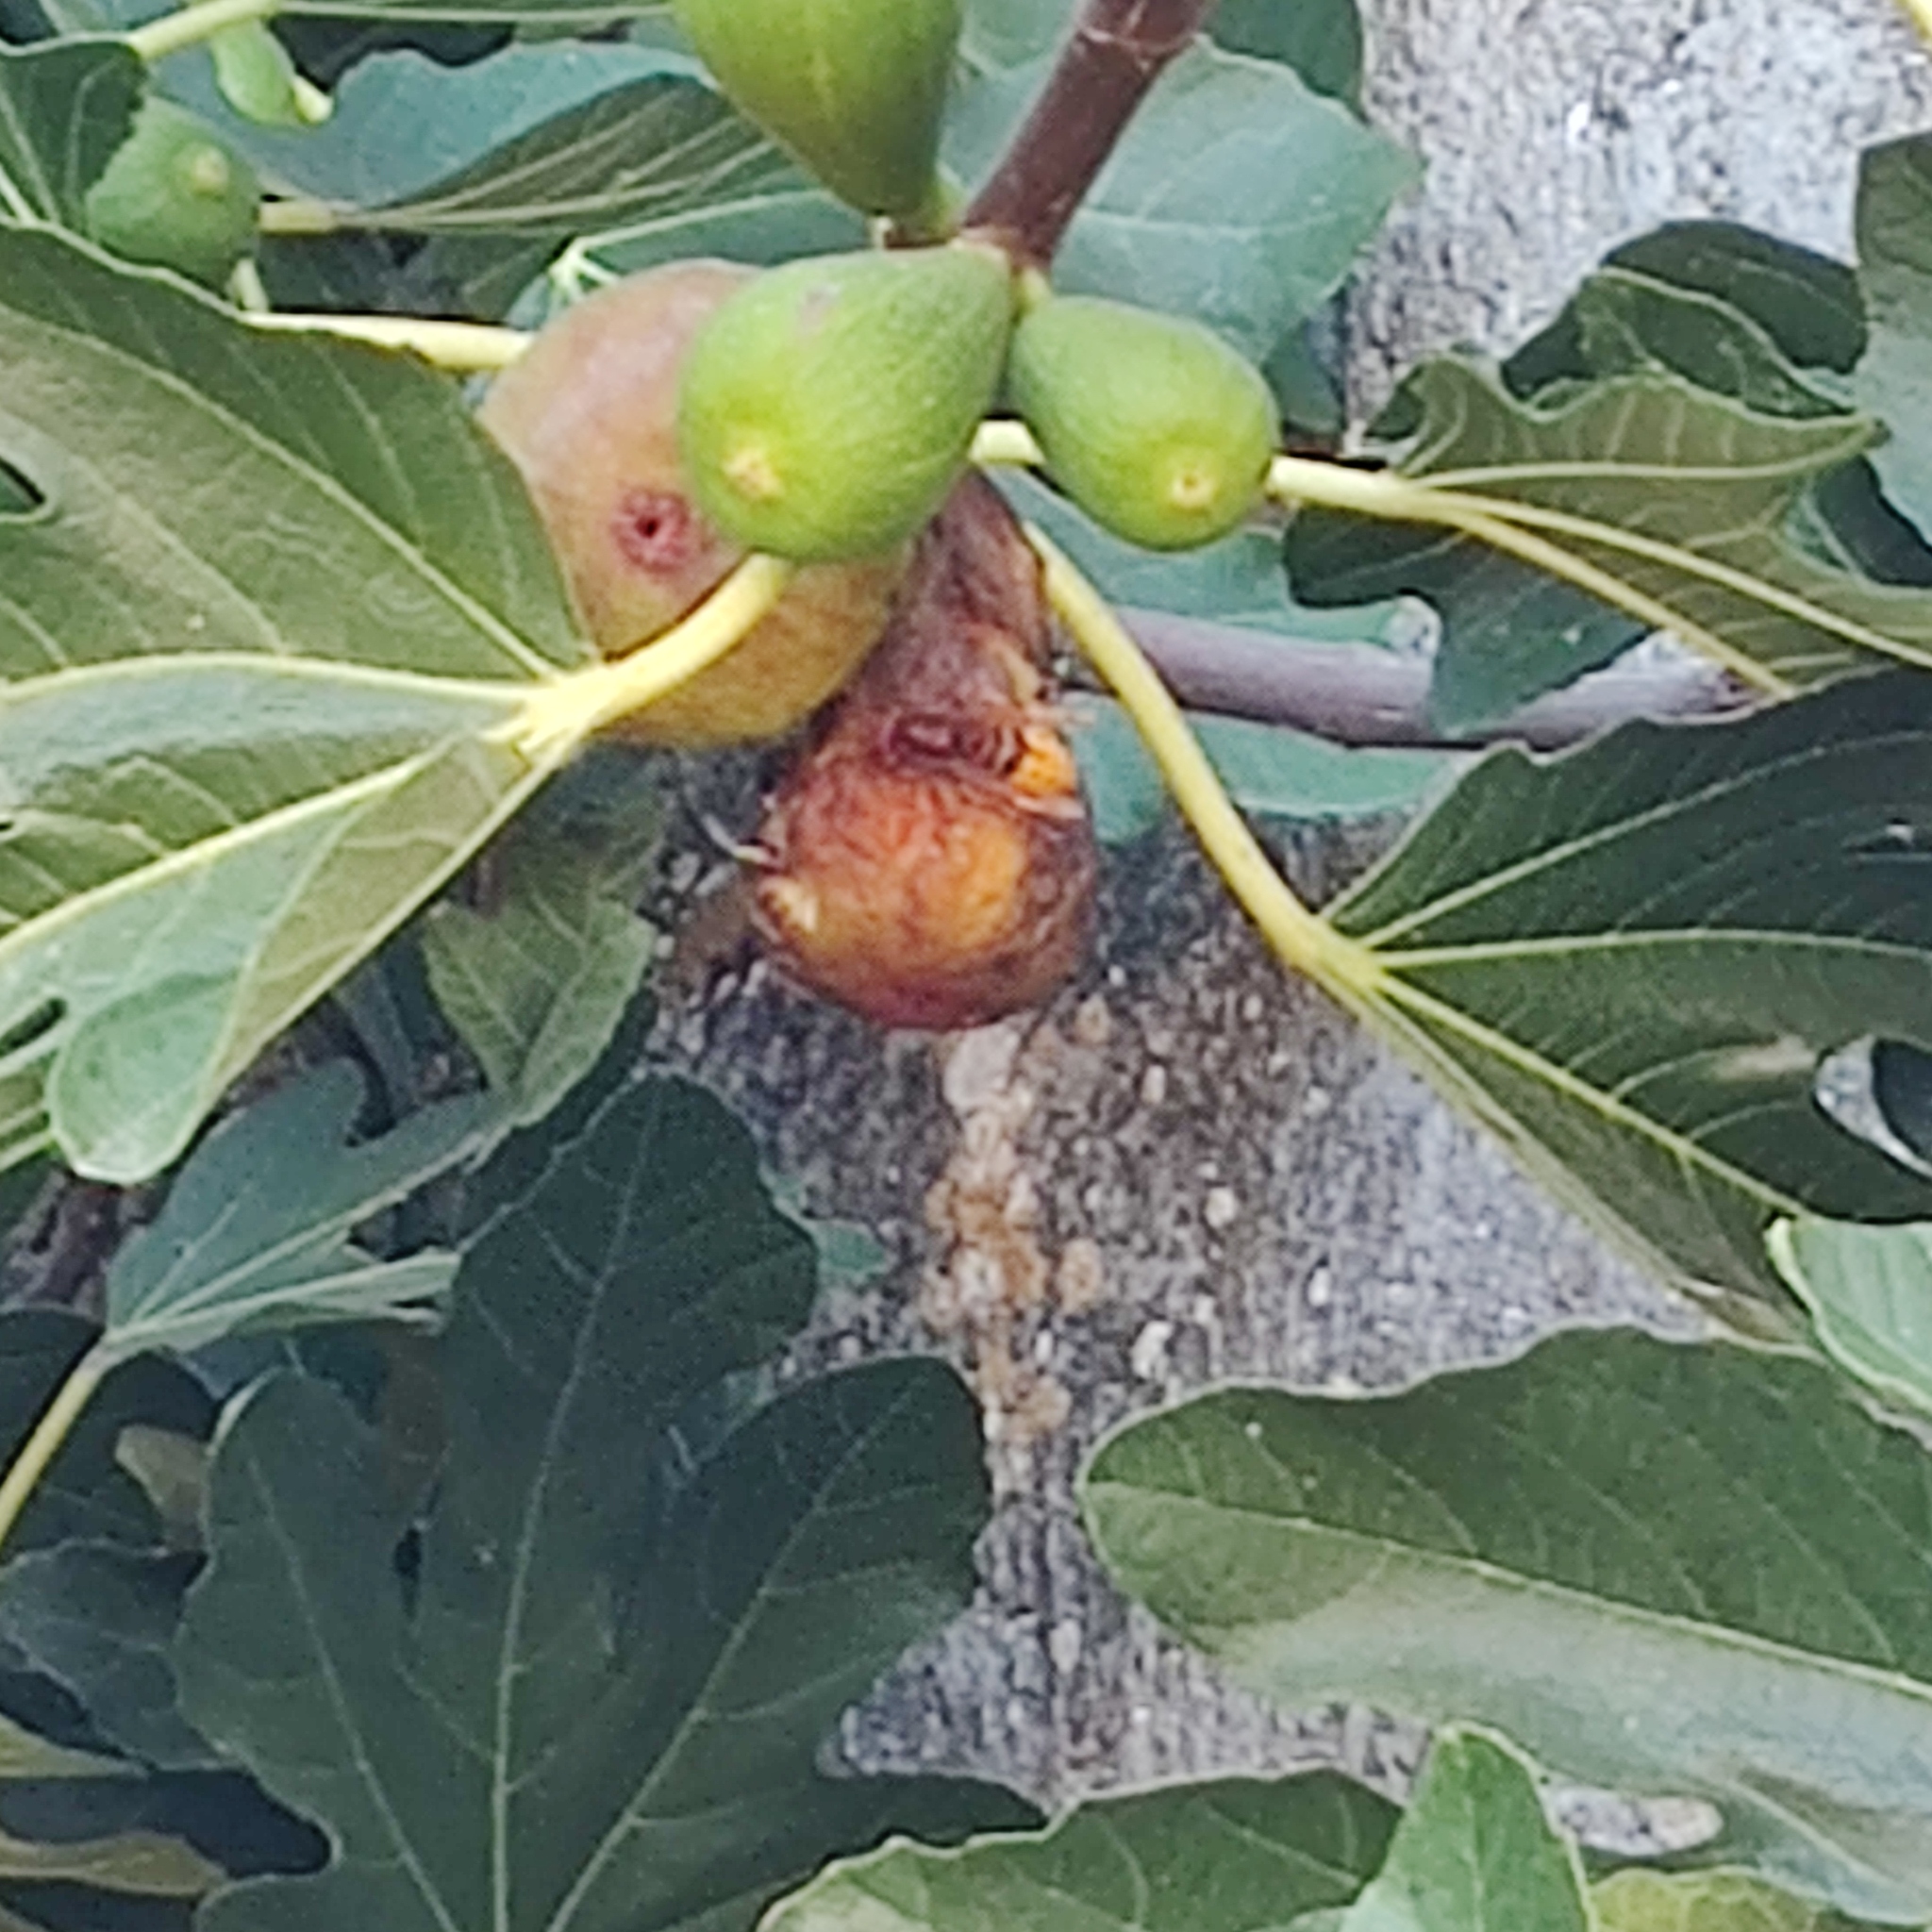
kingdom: Animalia
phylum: Arthropoda
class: Insecta
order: Hymenoptera
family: Vespidae
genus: Vespa
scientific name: Vespa crabro
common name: Hornet
